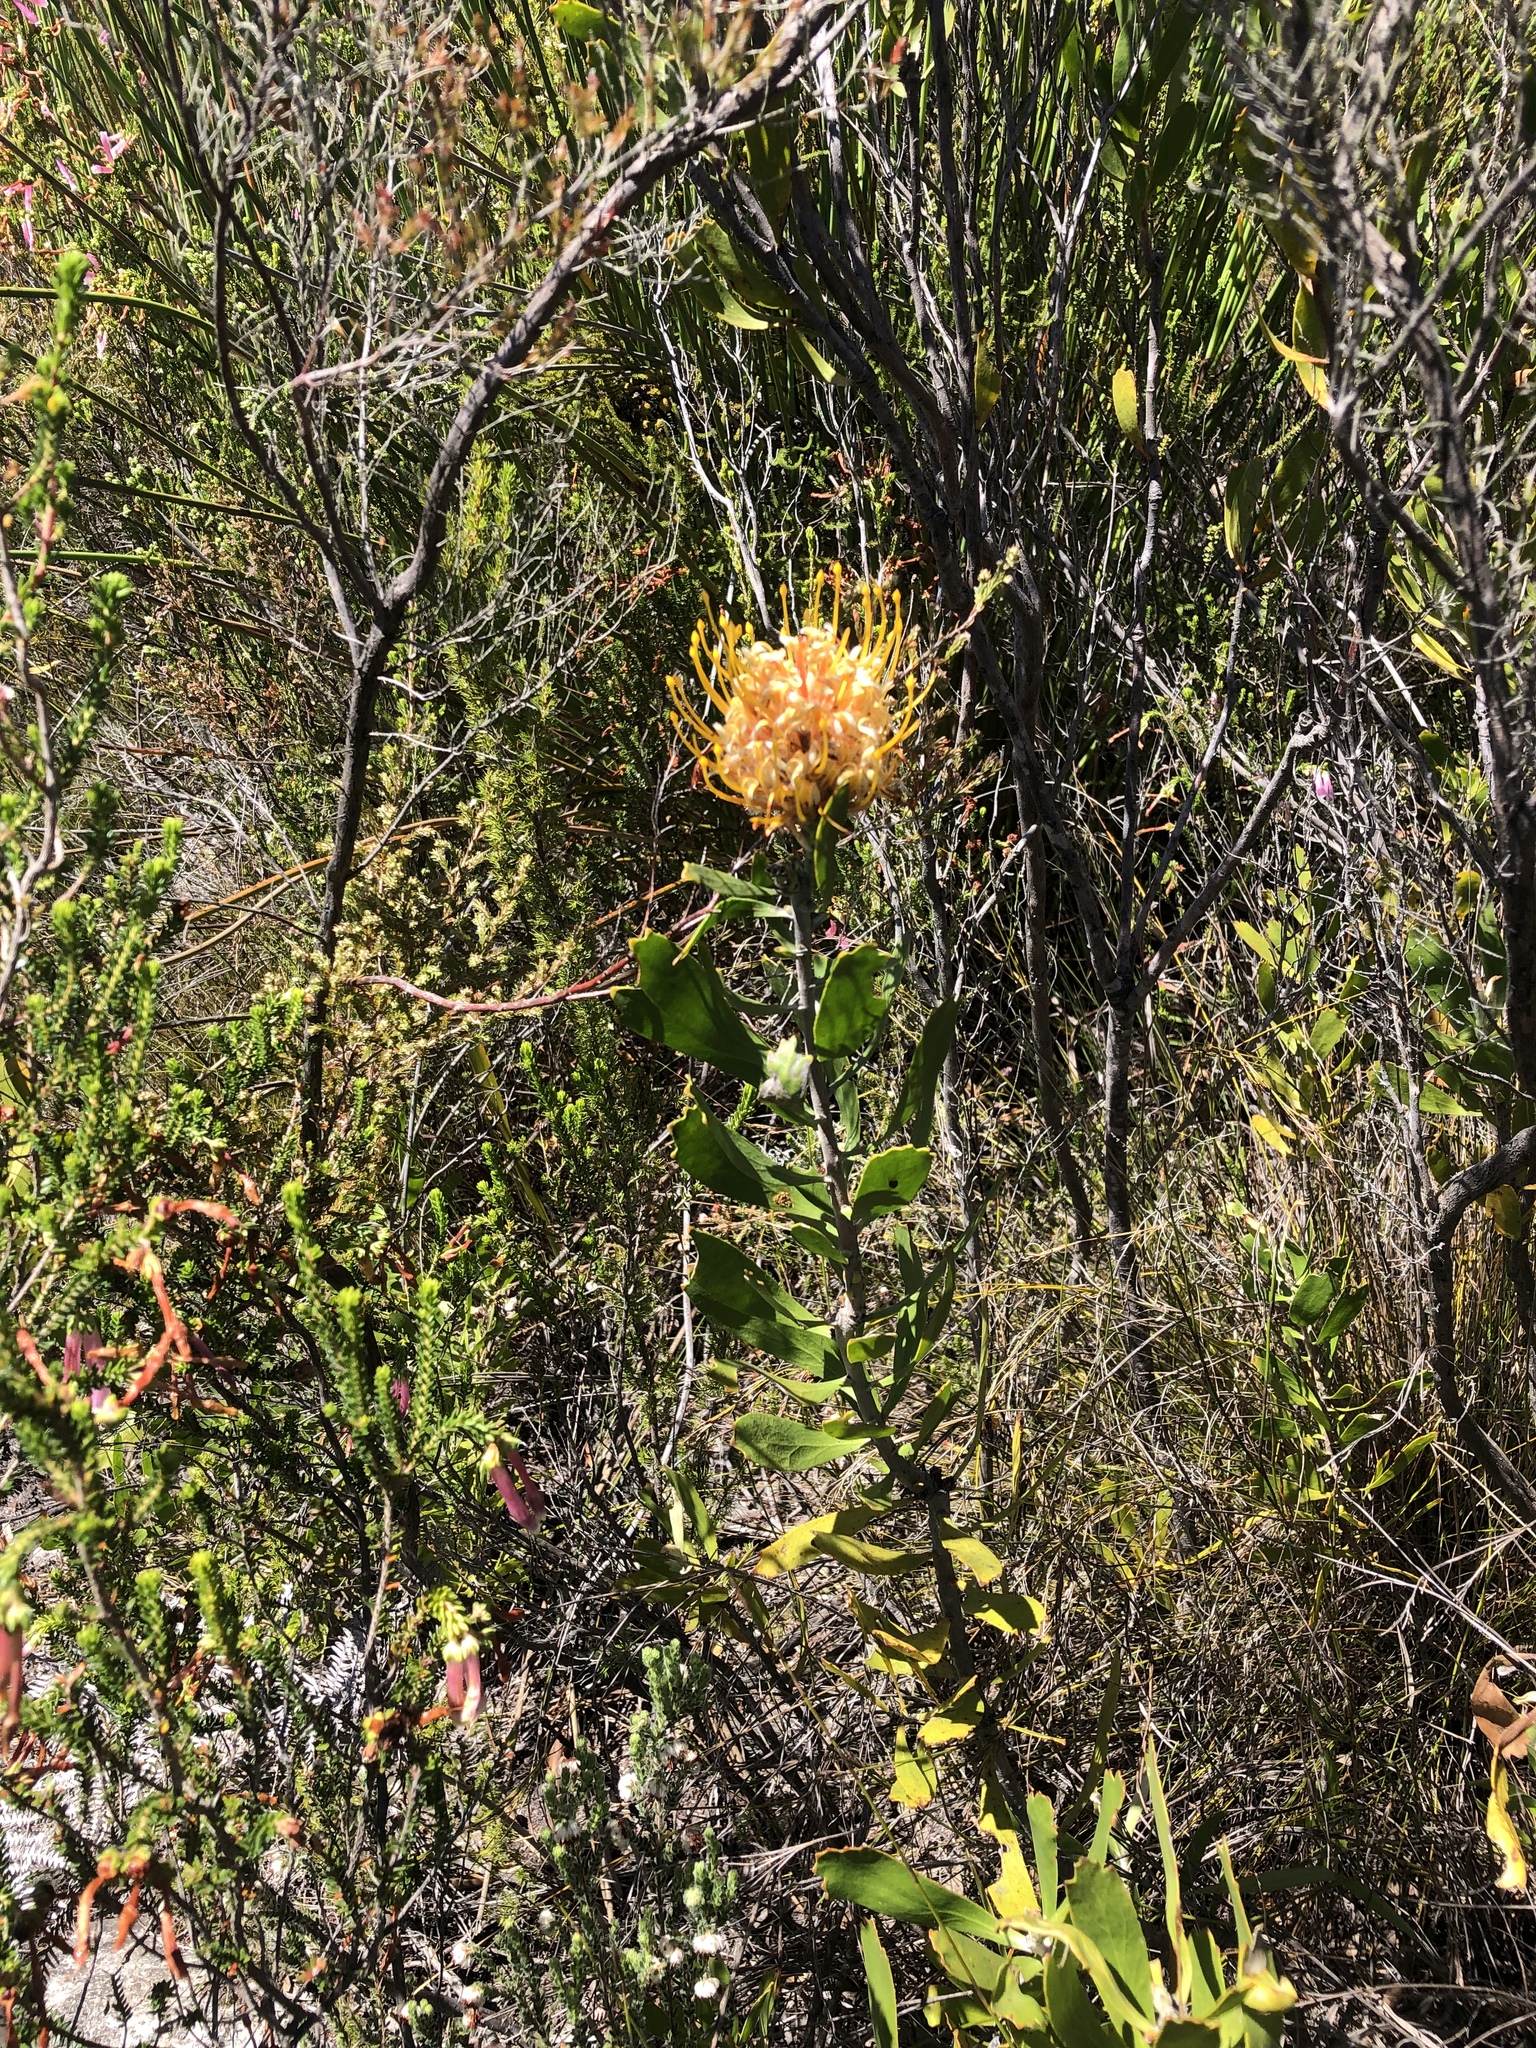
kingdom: Plantae
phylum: Tracheophyta
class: Magnoliopsida
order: Proteales
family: Proteaceae
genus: Leucospermum
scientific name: Leucospermum cuneiforme
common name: Common pincushion
